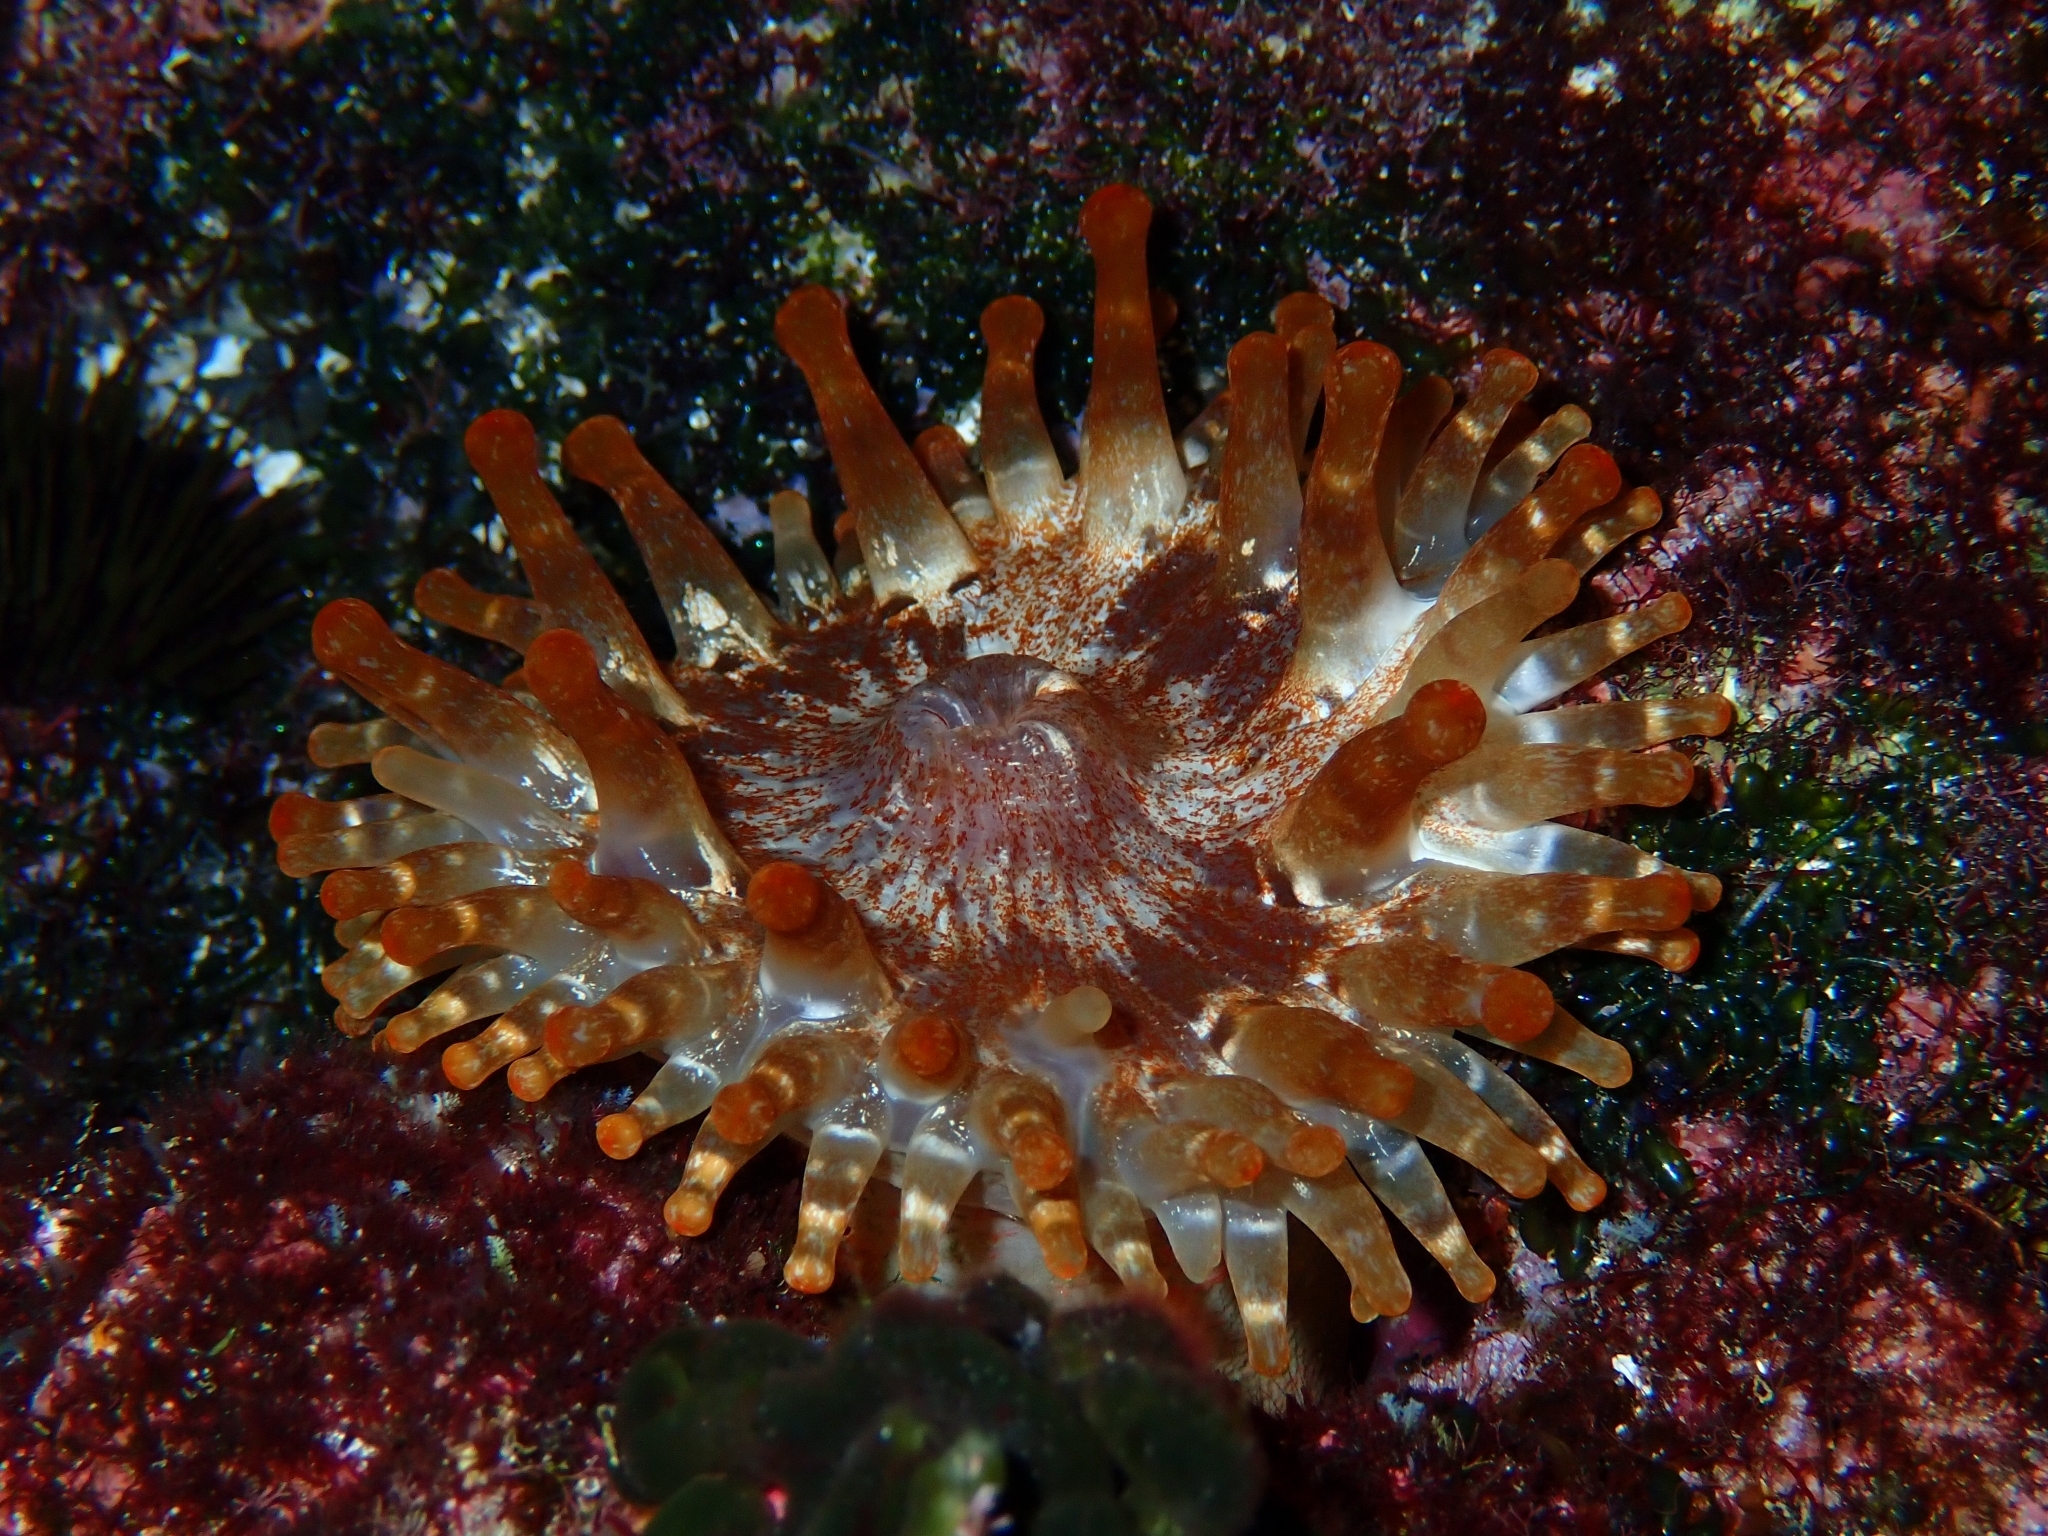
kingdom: Animalia
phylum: Cnidaria
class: Anthozoa
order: Actiniaria
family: Andvakiidae
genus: Telmatactis
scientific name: Telmatactis cricoides
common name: Blunt-tentacled anemone
